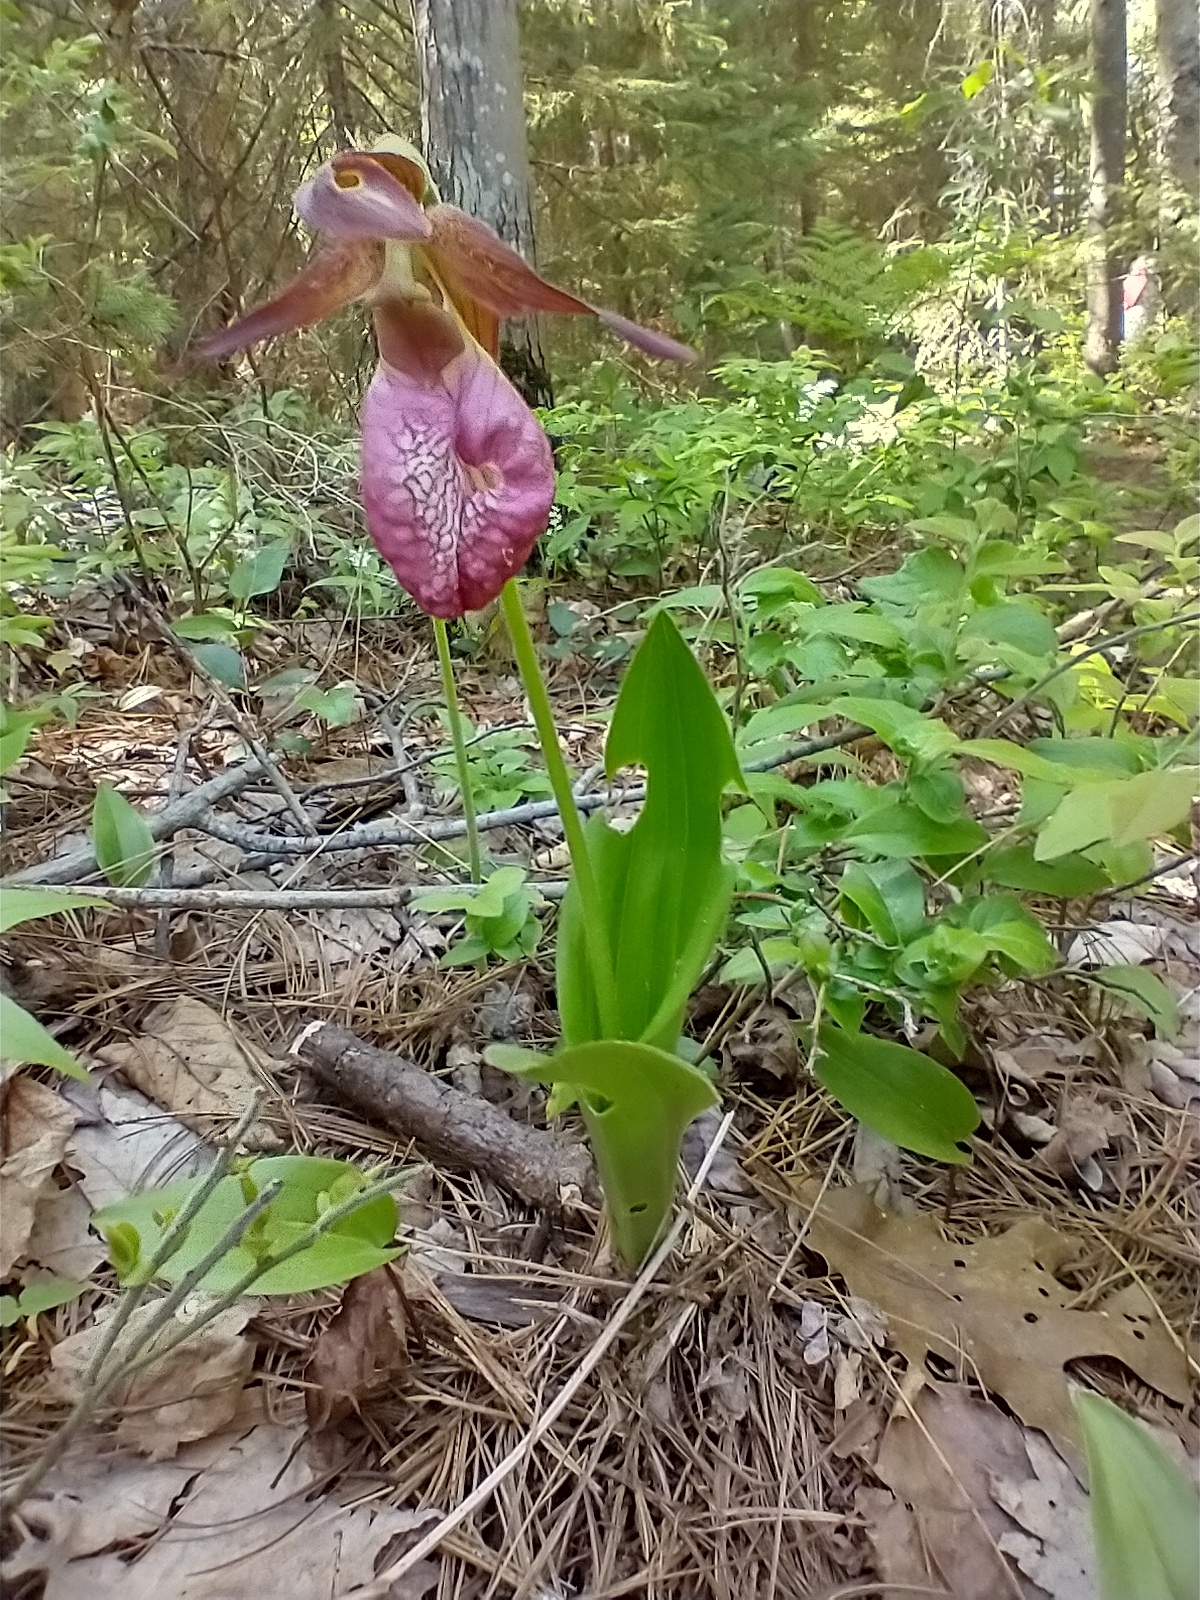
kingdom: Plantae
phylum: Tracheophyta
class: Liliopsida
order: Asparagales
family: Orchidaceae
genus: Cypripedium
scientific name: Cypripedium acaule
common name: Pink lady's-slipper
